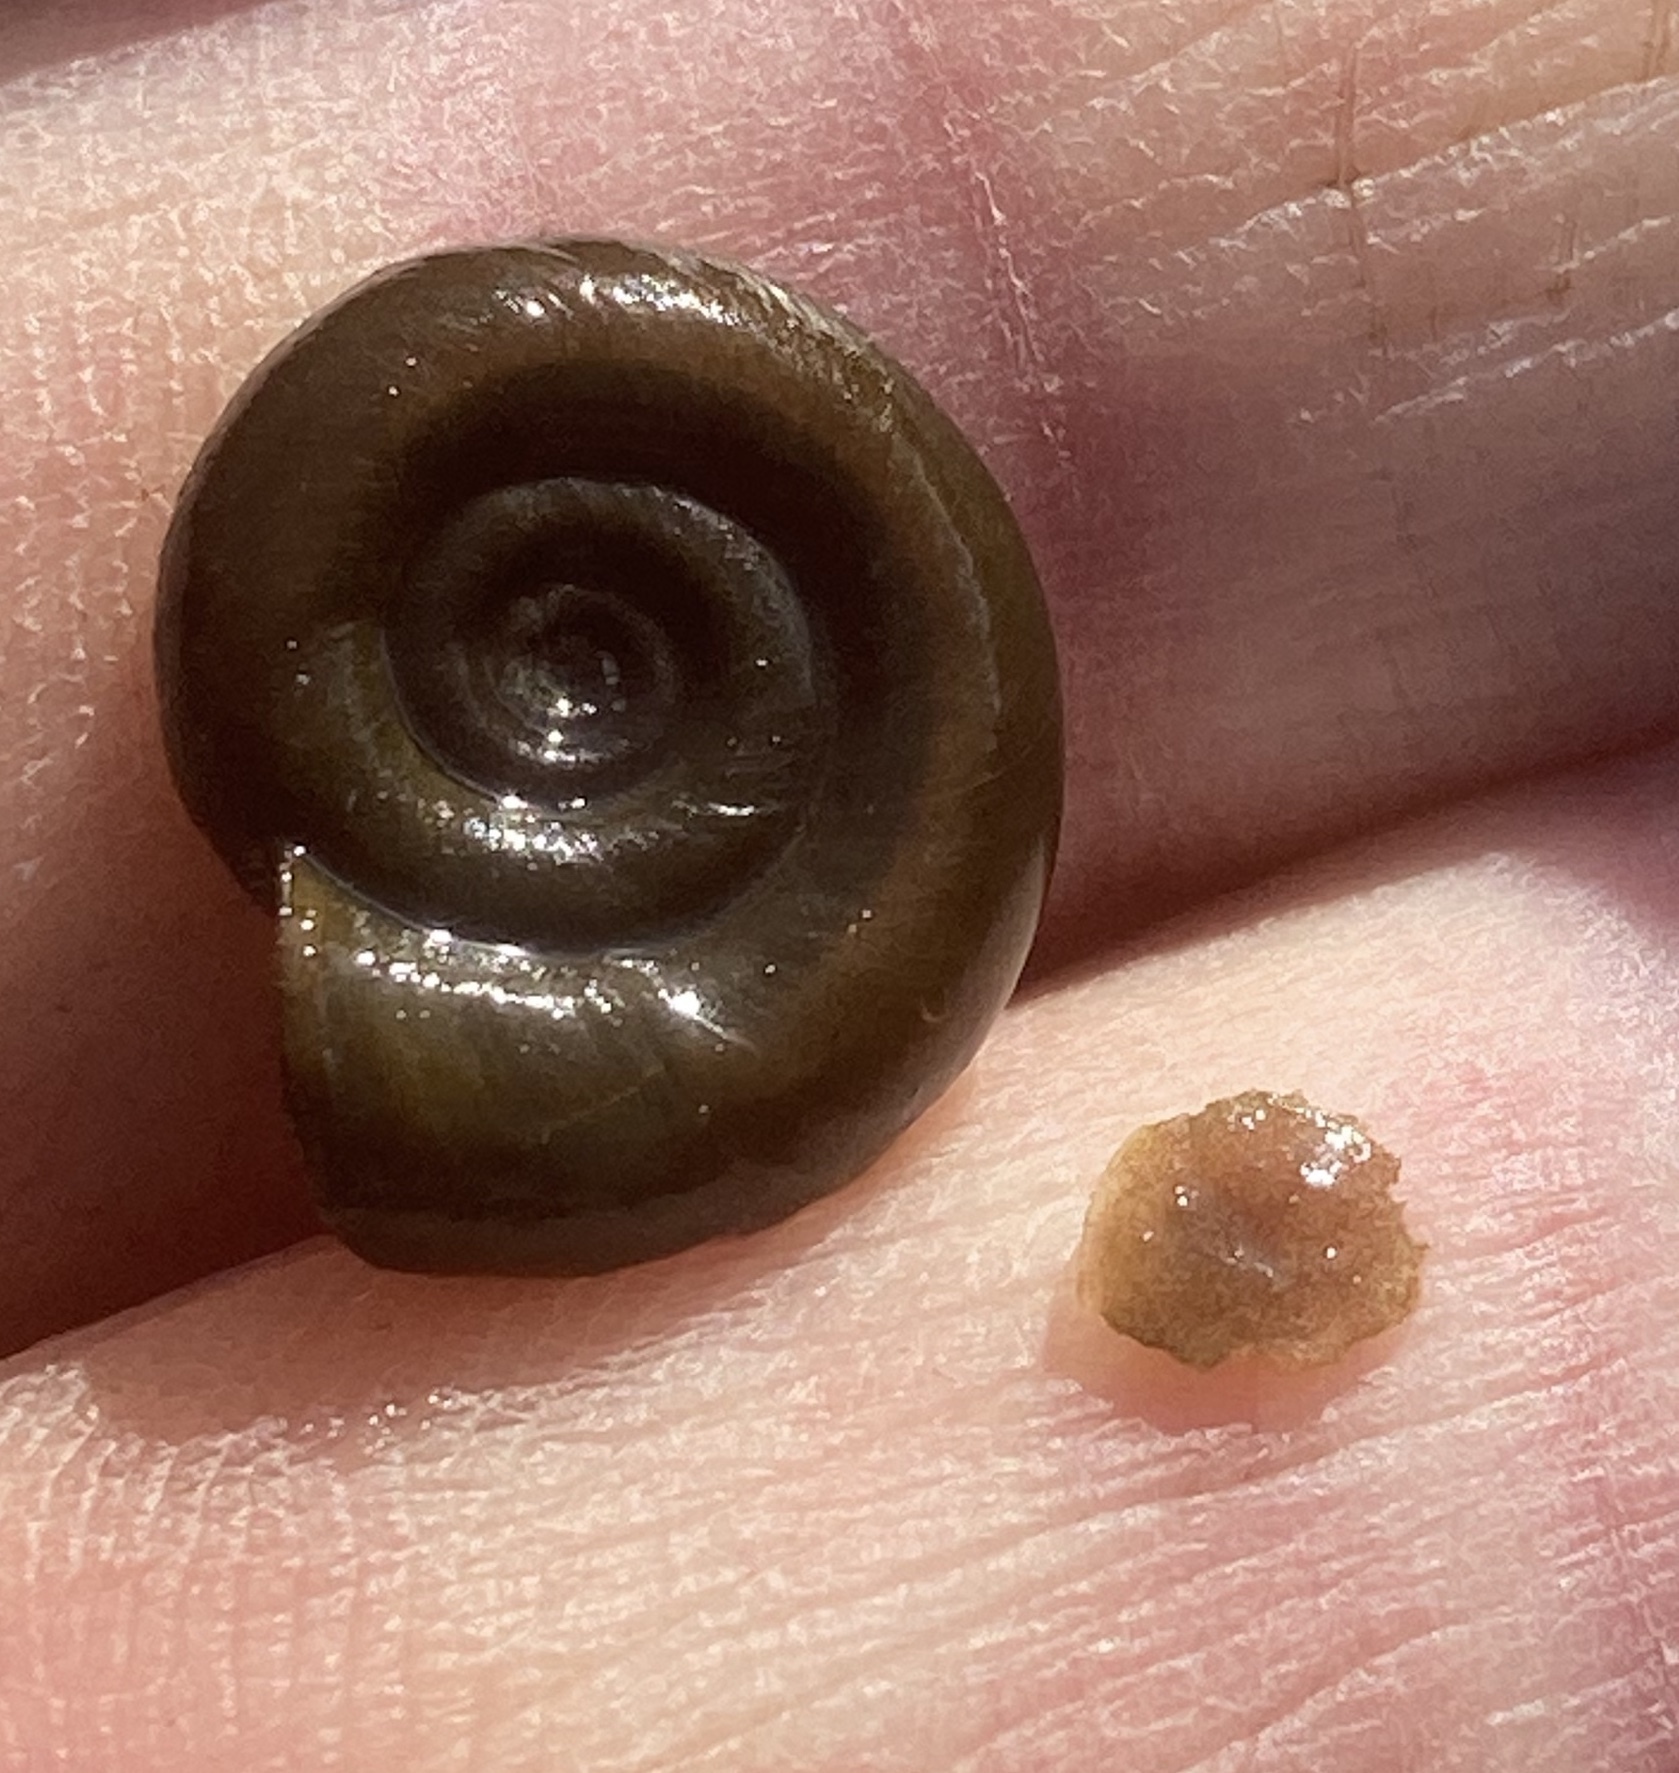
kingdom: Animalia
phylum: Mollusca
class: Gastropoda
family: Planorbidae
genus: Planorbis
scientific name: Planorbis planorbis
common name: Margined ramshorn
